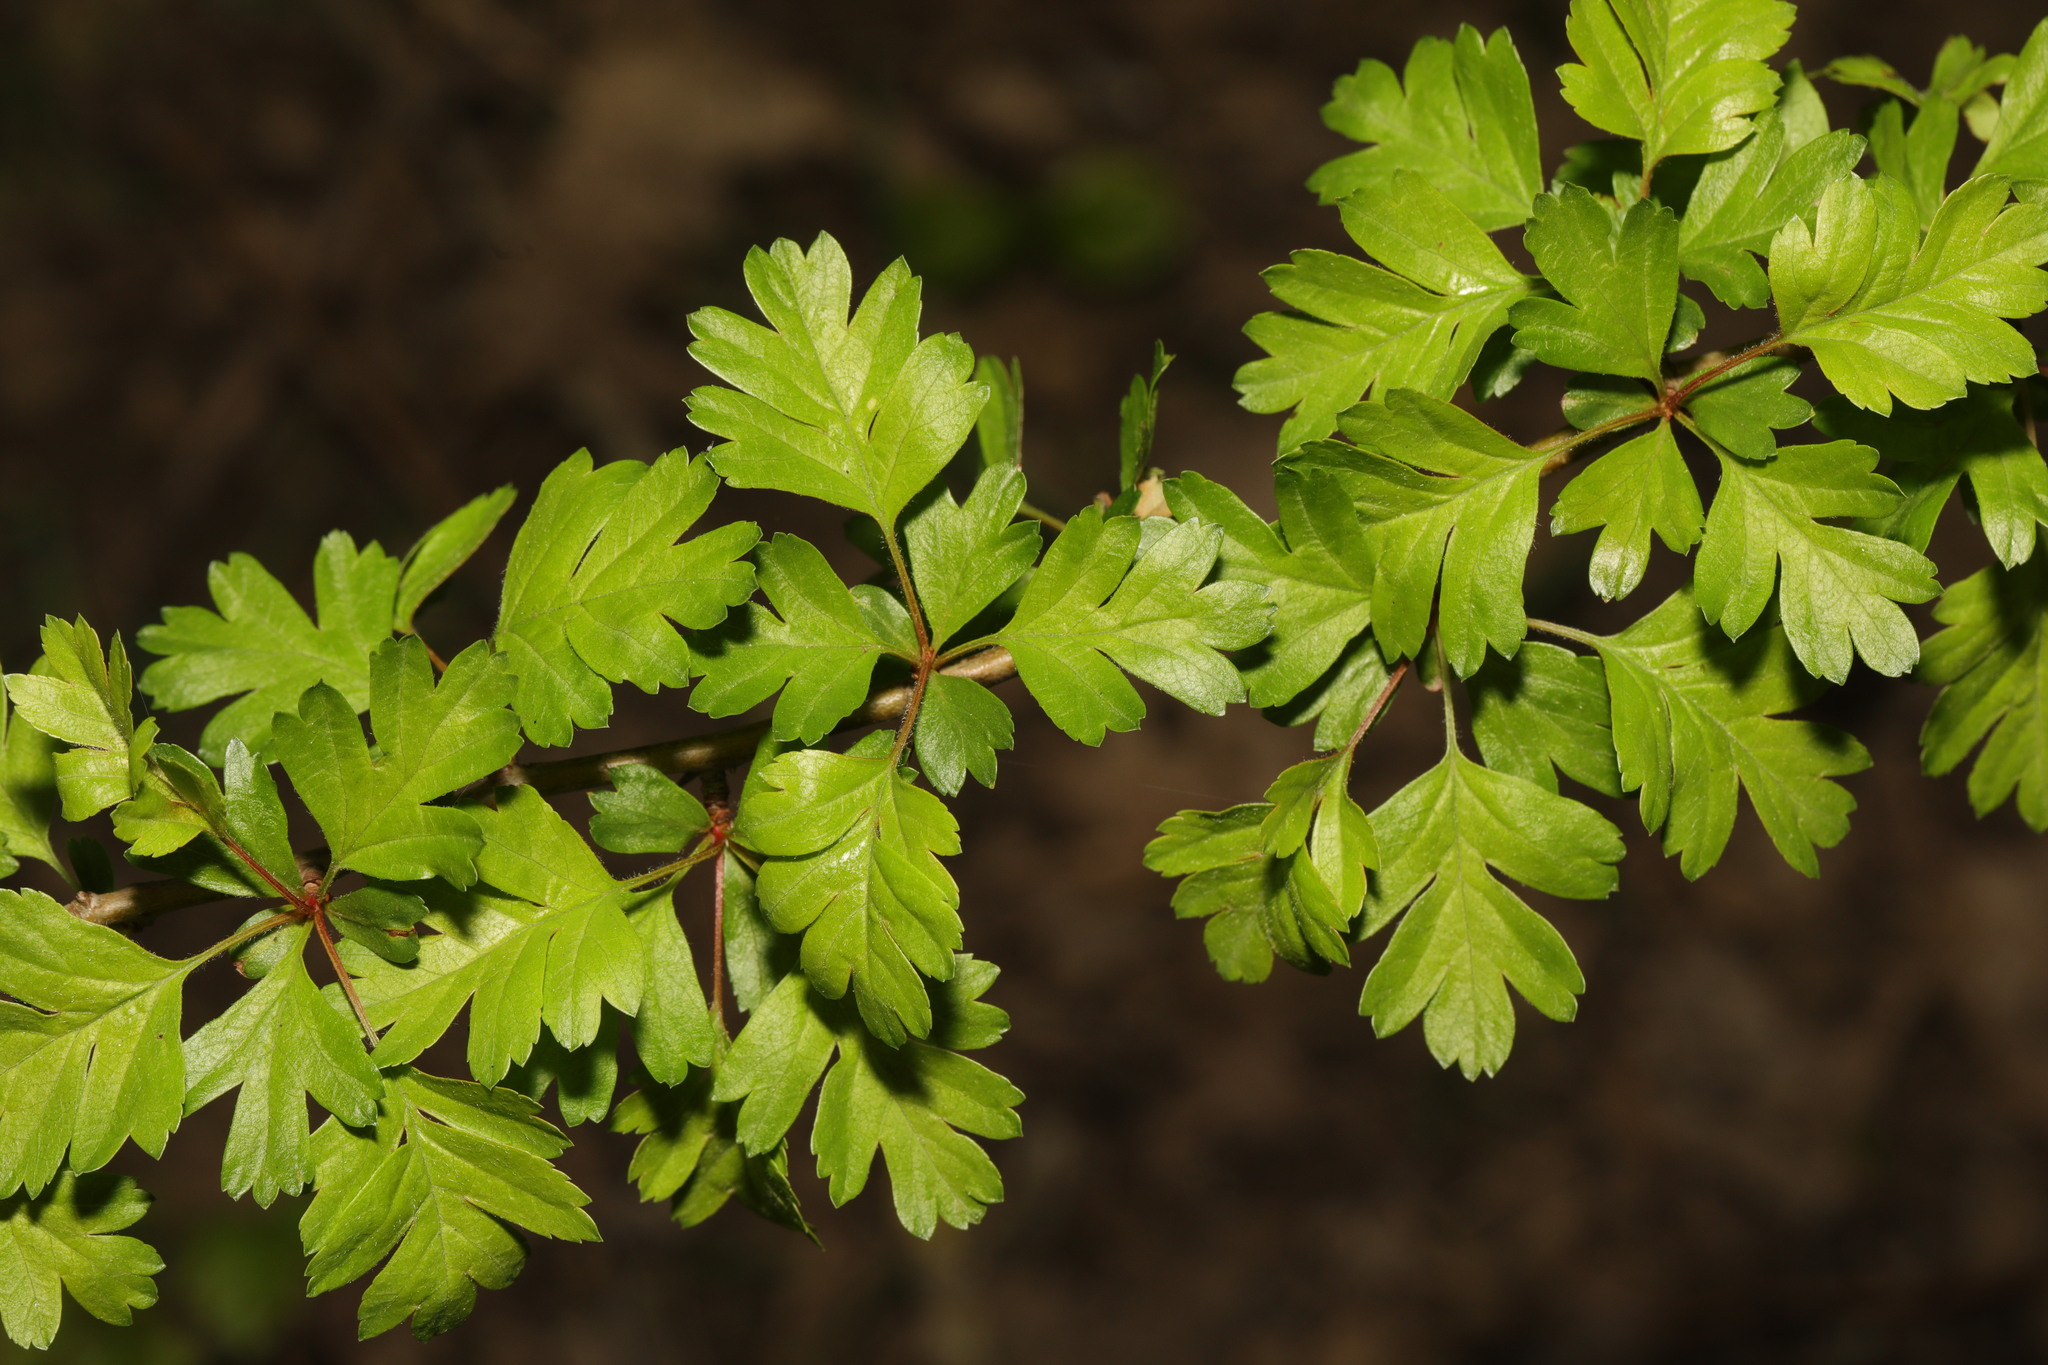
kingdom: Plantae
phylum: Tracheophyta
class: Magnoliopsida
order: Rosales
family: Rosaceae
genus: Crataegus
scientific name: Crataegus monogyna
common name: Hawthorn
